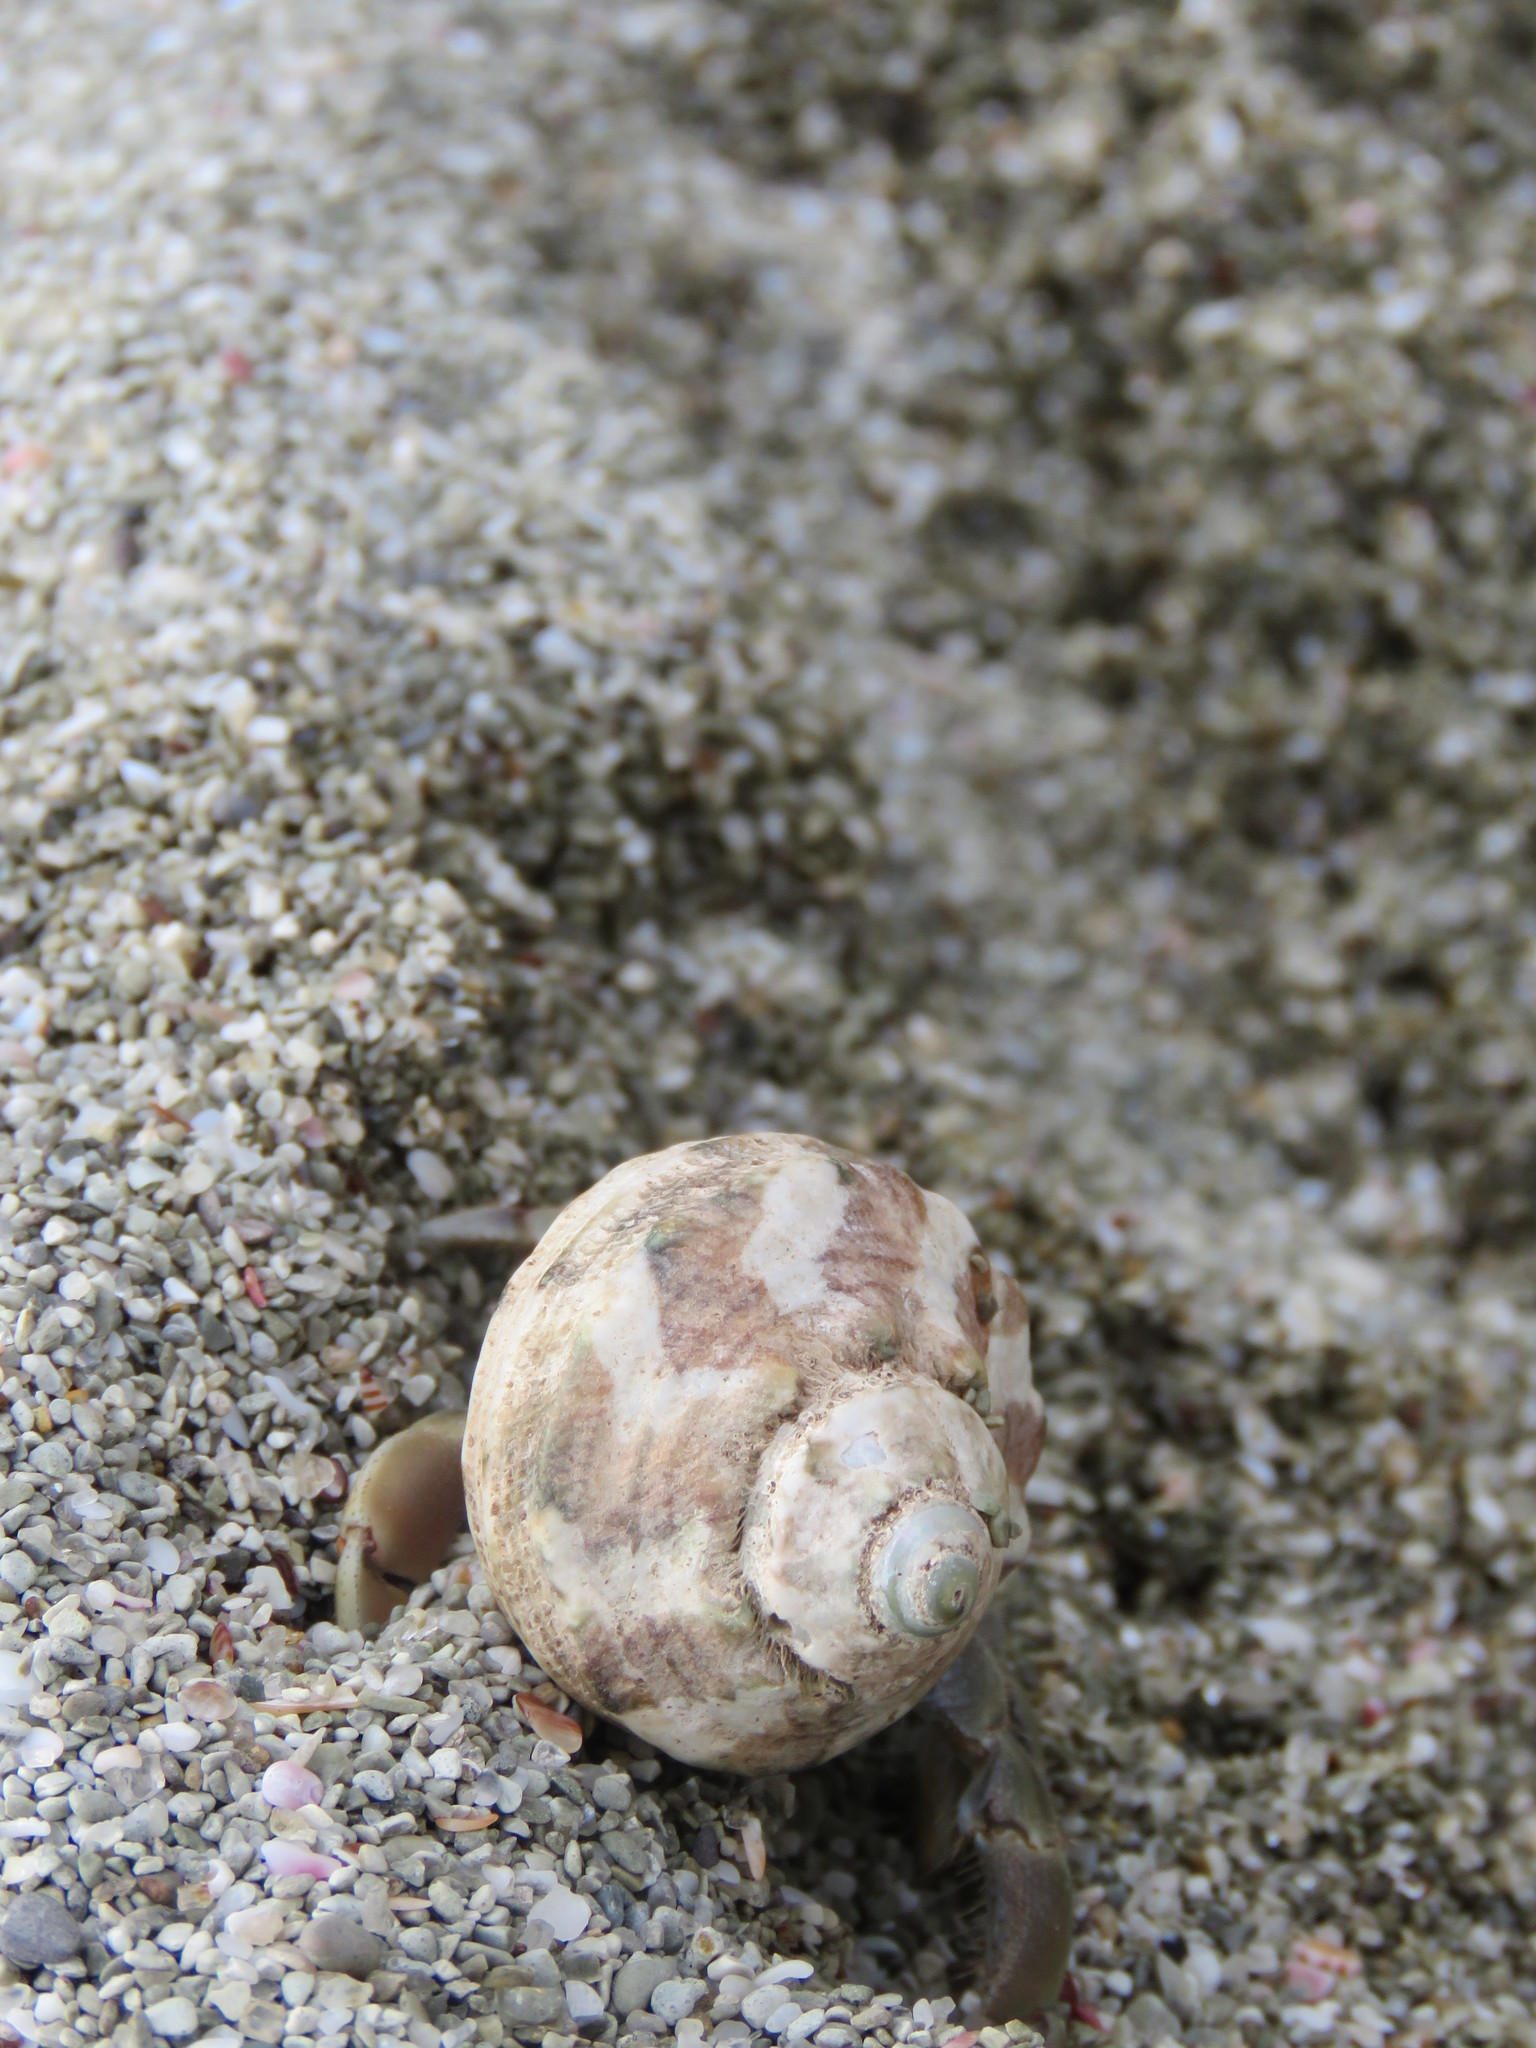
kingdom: Animalia
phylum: Arthropoda
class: Malacostraca
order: Decapoda
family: Coenobitidae
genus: Coenobita
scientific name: Coenobita compressus
